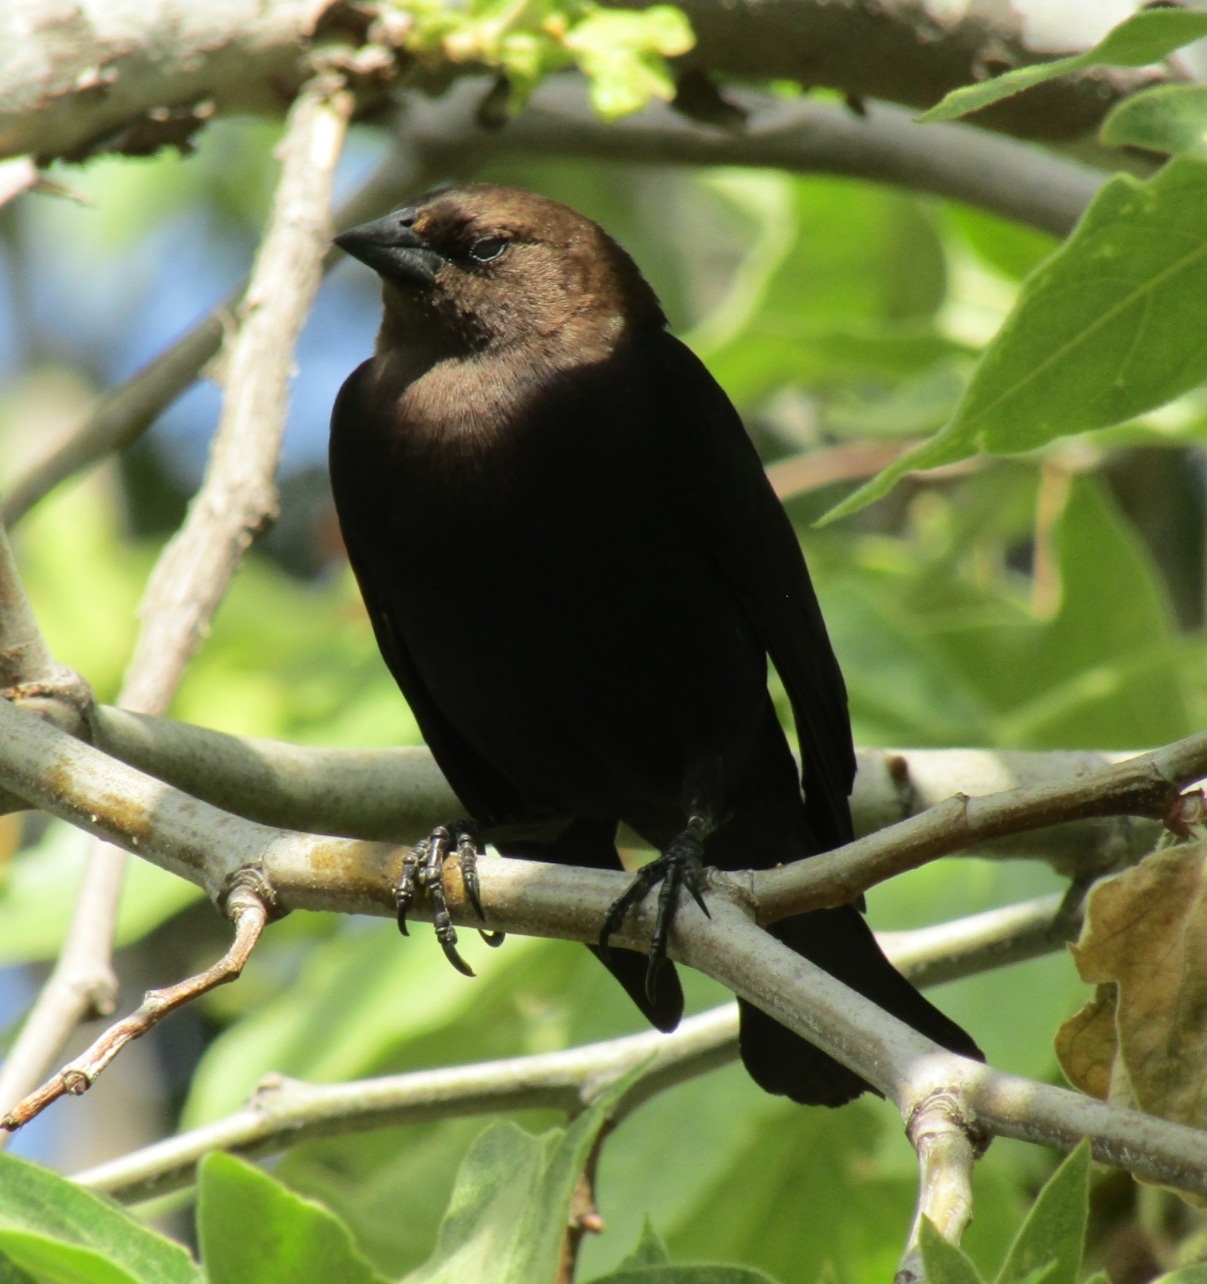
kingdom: Animalia
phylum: Chordata
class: Aves
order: Passeriformes
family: Icteridae
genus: Molothrus
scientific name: Molothrus ater
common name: Brown-headed cowbird
